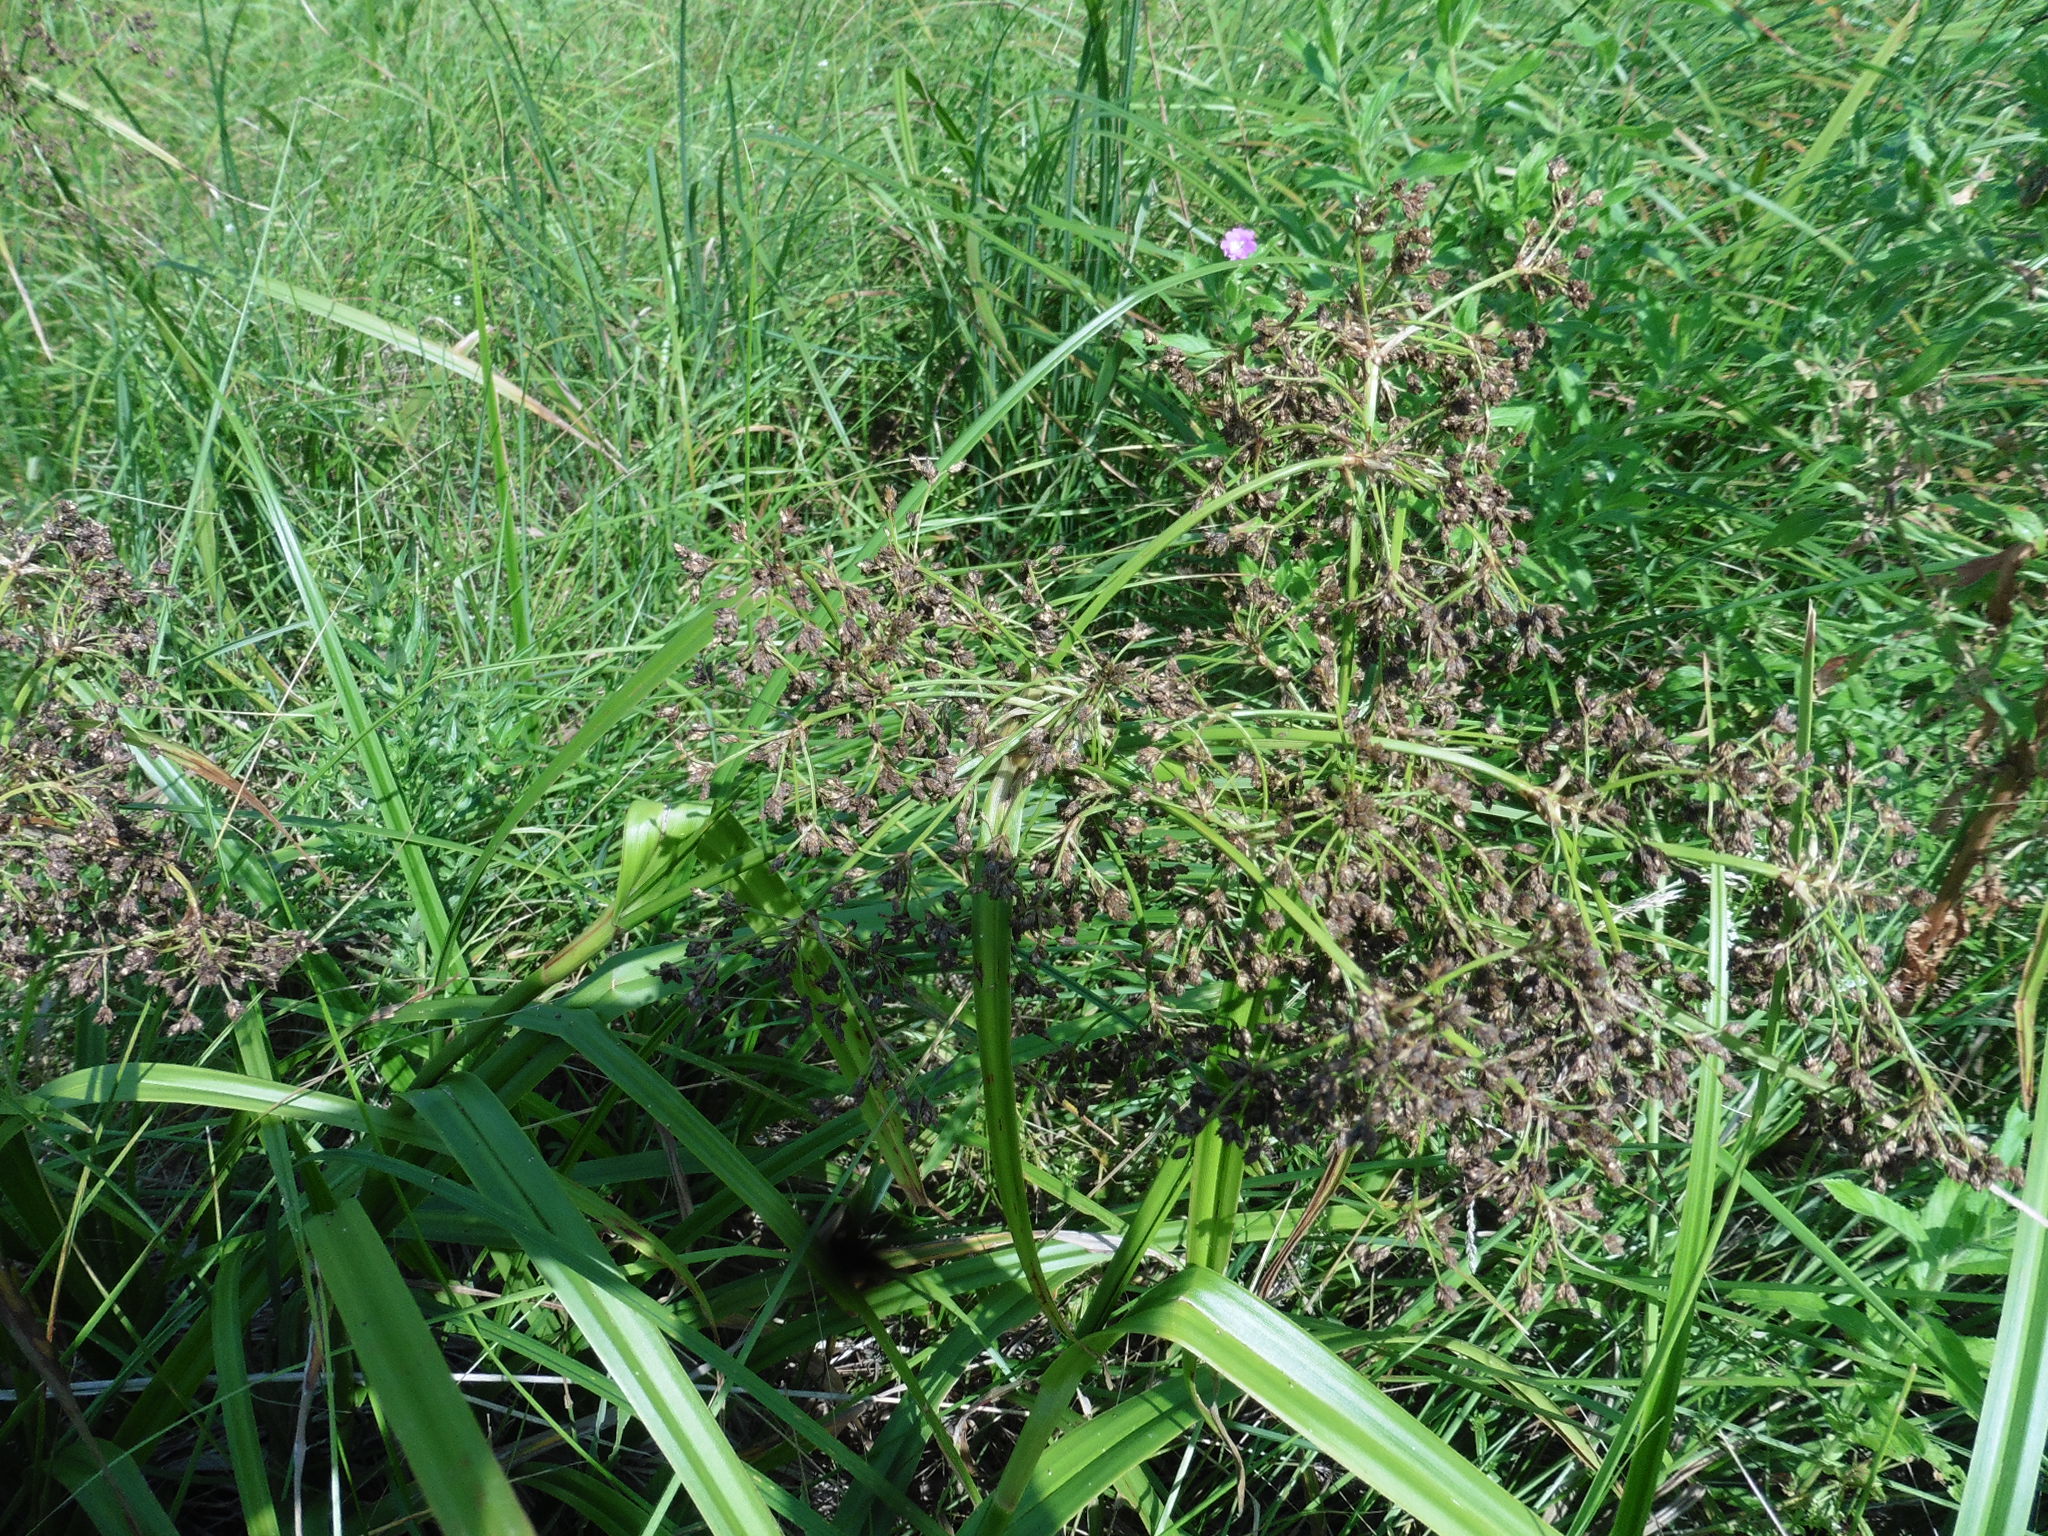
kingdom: Plantae
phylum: Tracheophyta
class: Liliopsida
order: Poales
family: Cyperaceae
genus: Scirpus
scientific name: Scirpus sylvaticus
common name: Wood club-rush
